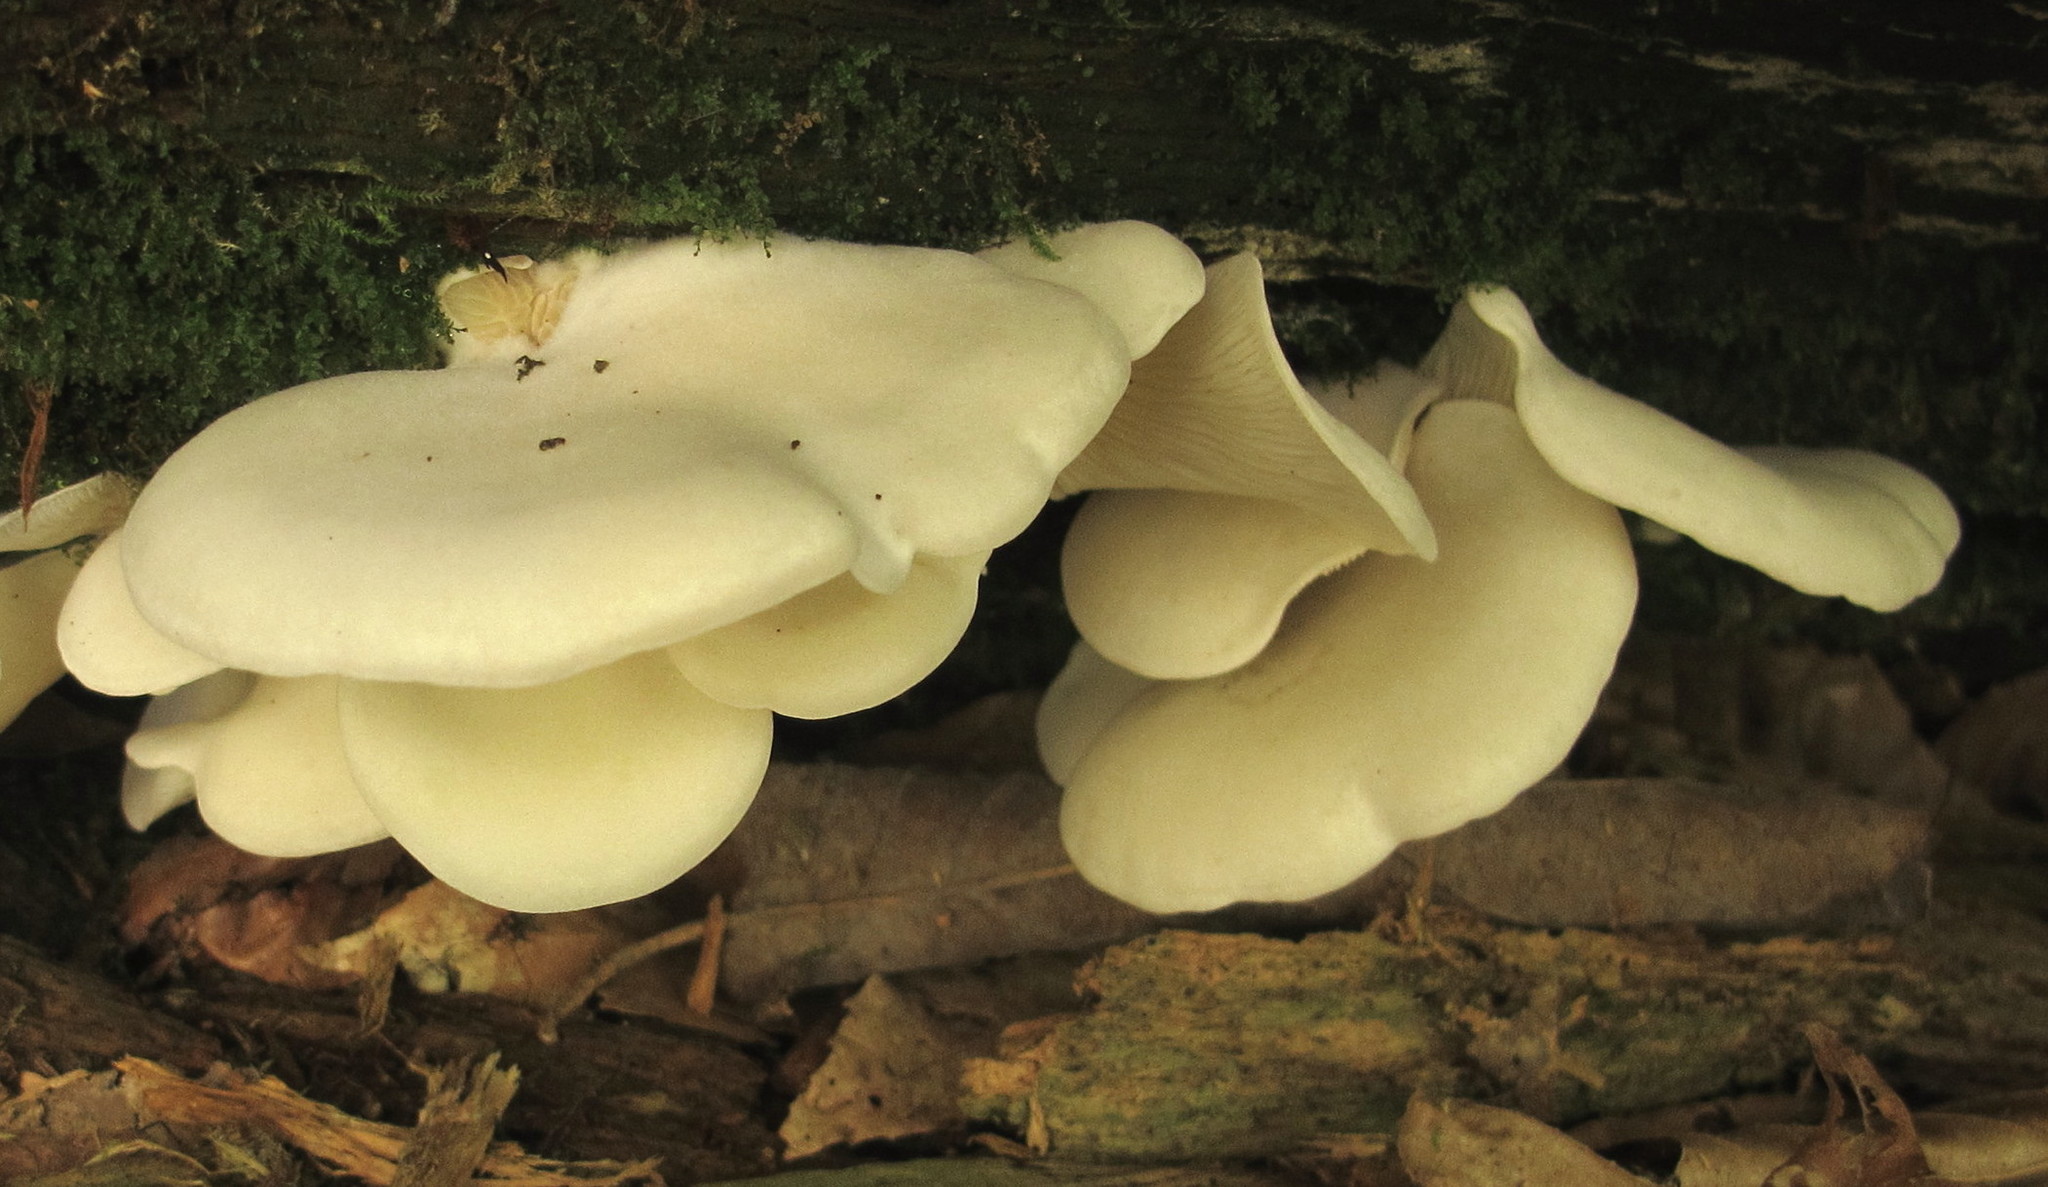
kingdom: Fungi
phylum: Basidiomycota
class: Agaricomycetes
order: Agaricales
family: Marasmiaceae
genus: Pleurocybella
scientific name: Pleurocybella porrigens
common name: Angel's wings
